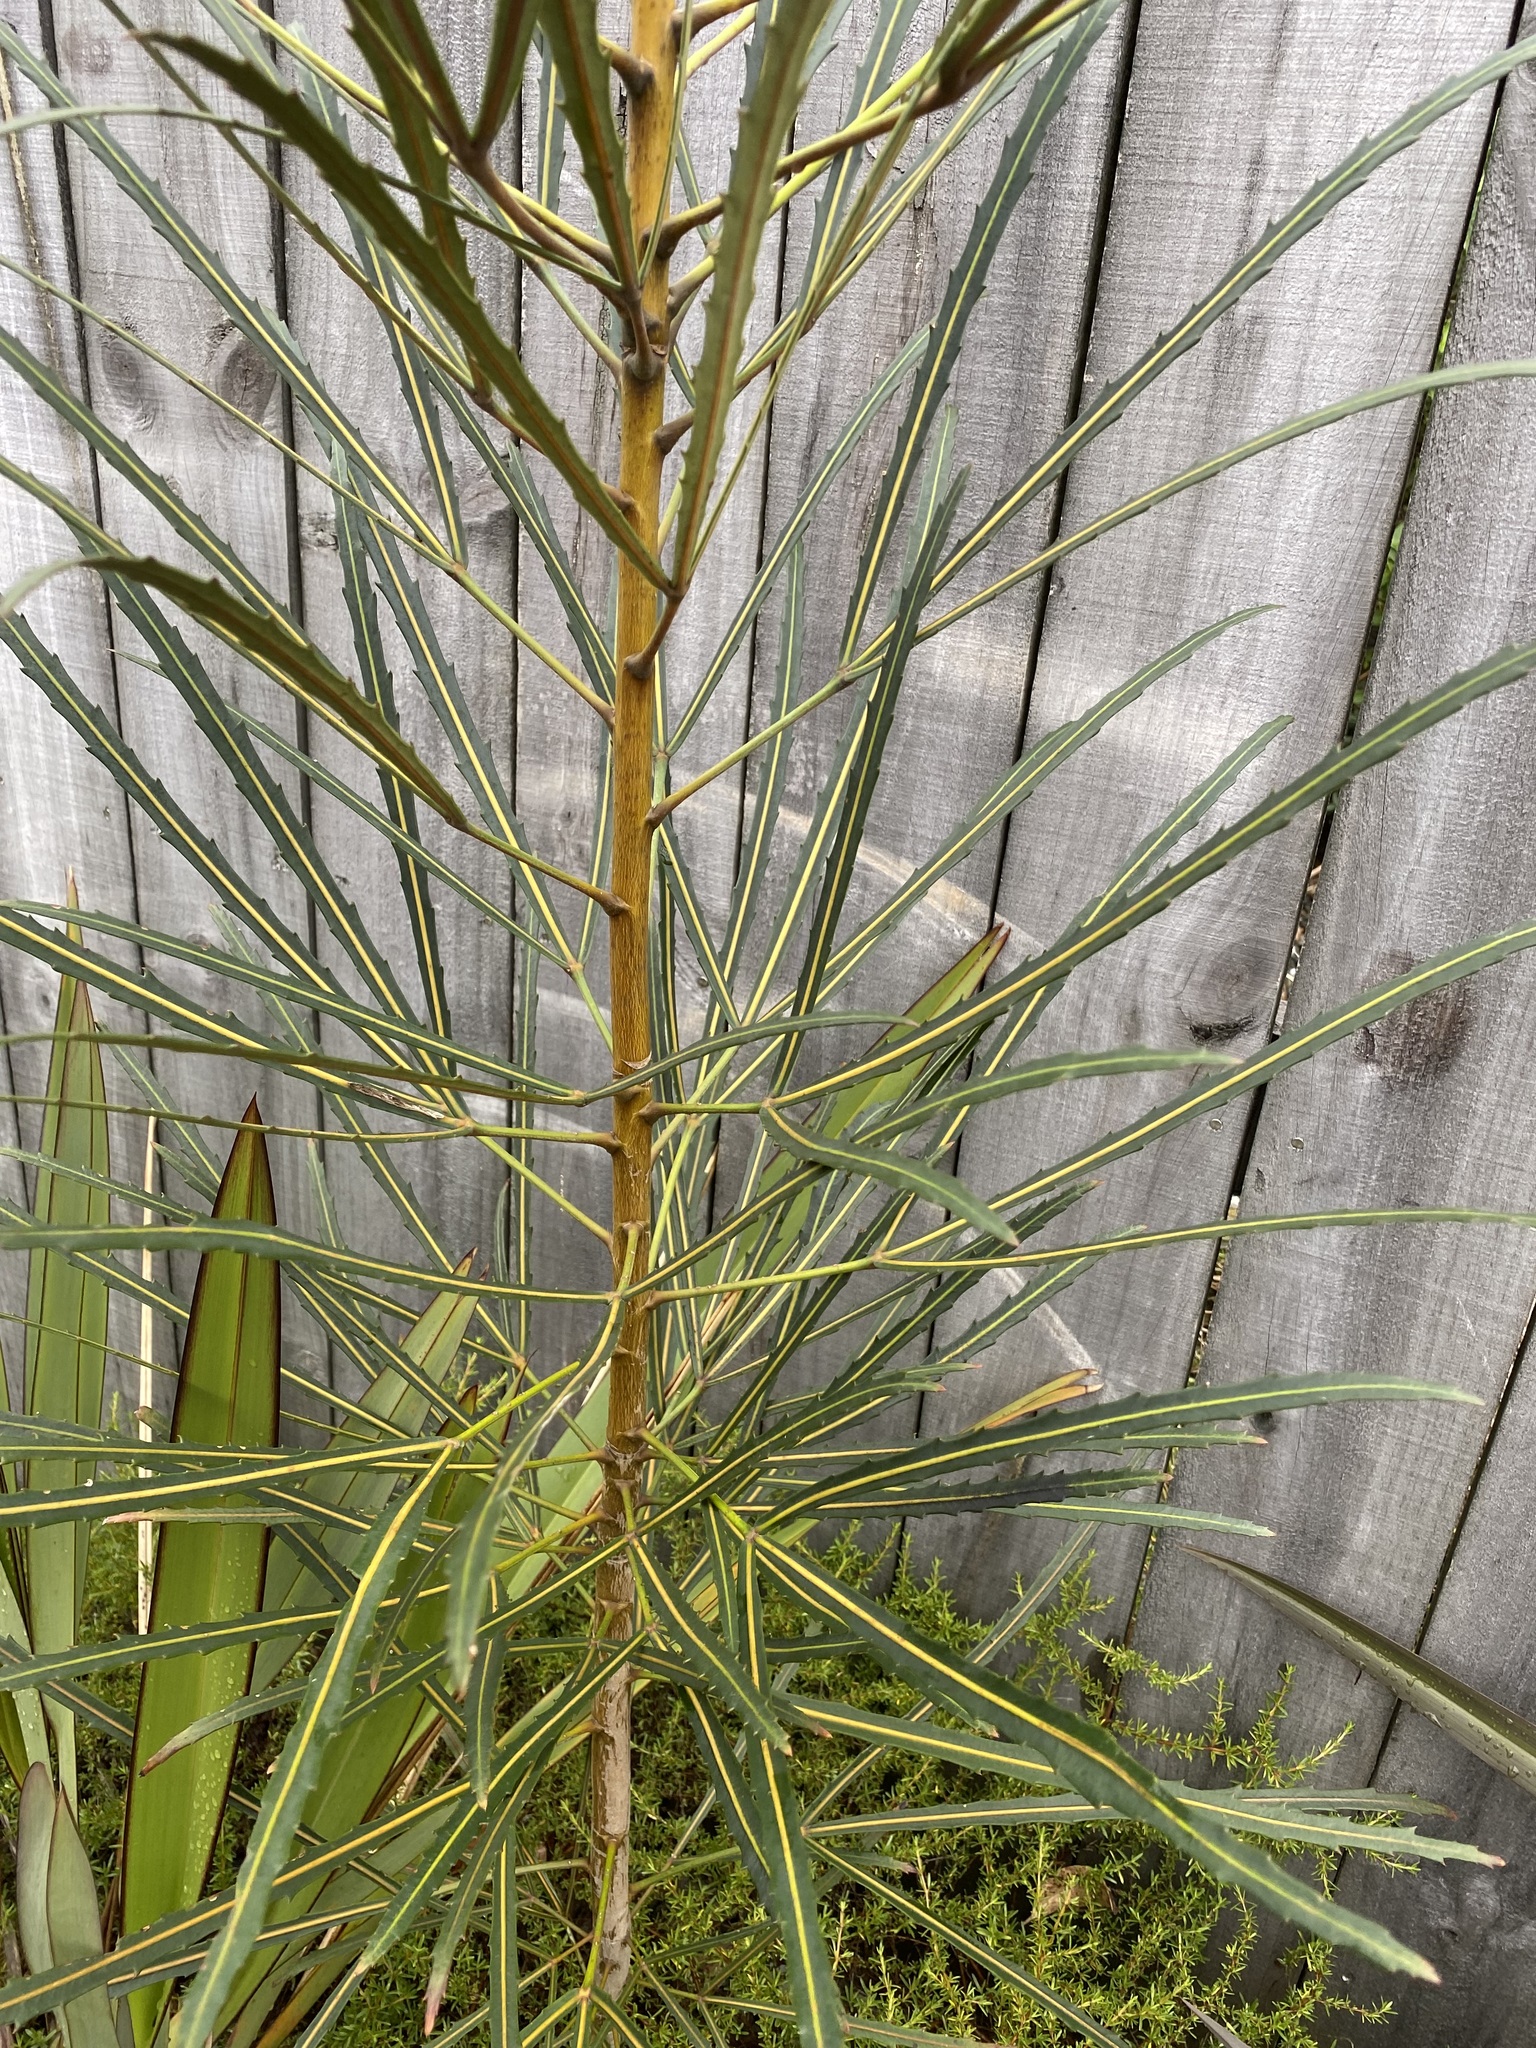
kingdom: Plantae
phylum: Tracheophyta
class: Magnoliopsida
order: Apiales
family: Araliaceae
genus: Pseudopanax
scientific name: Pseudopanax
